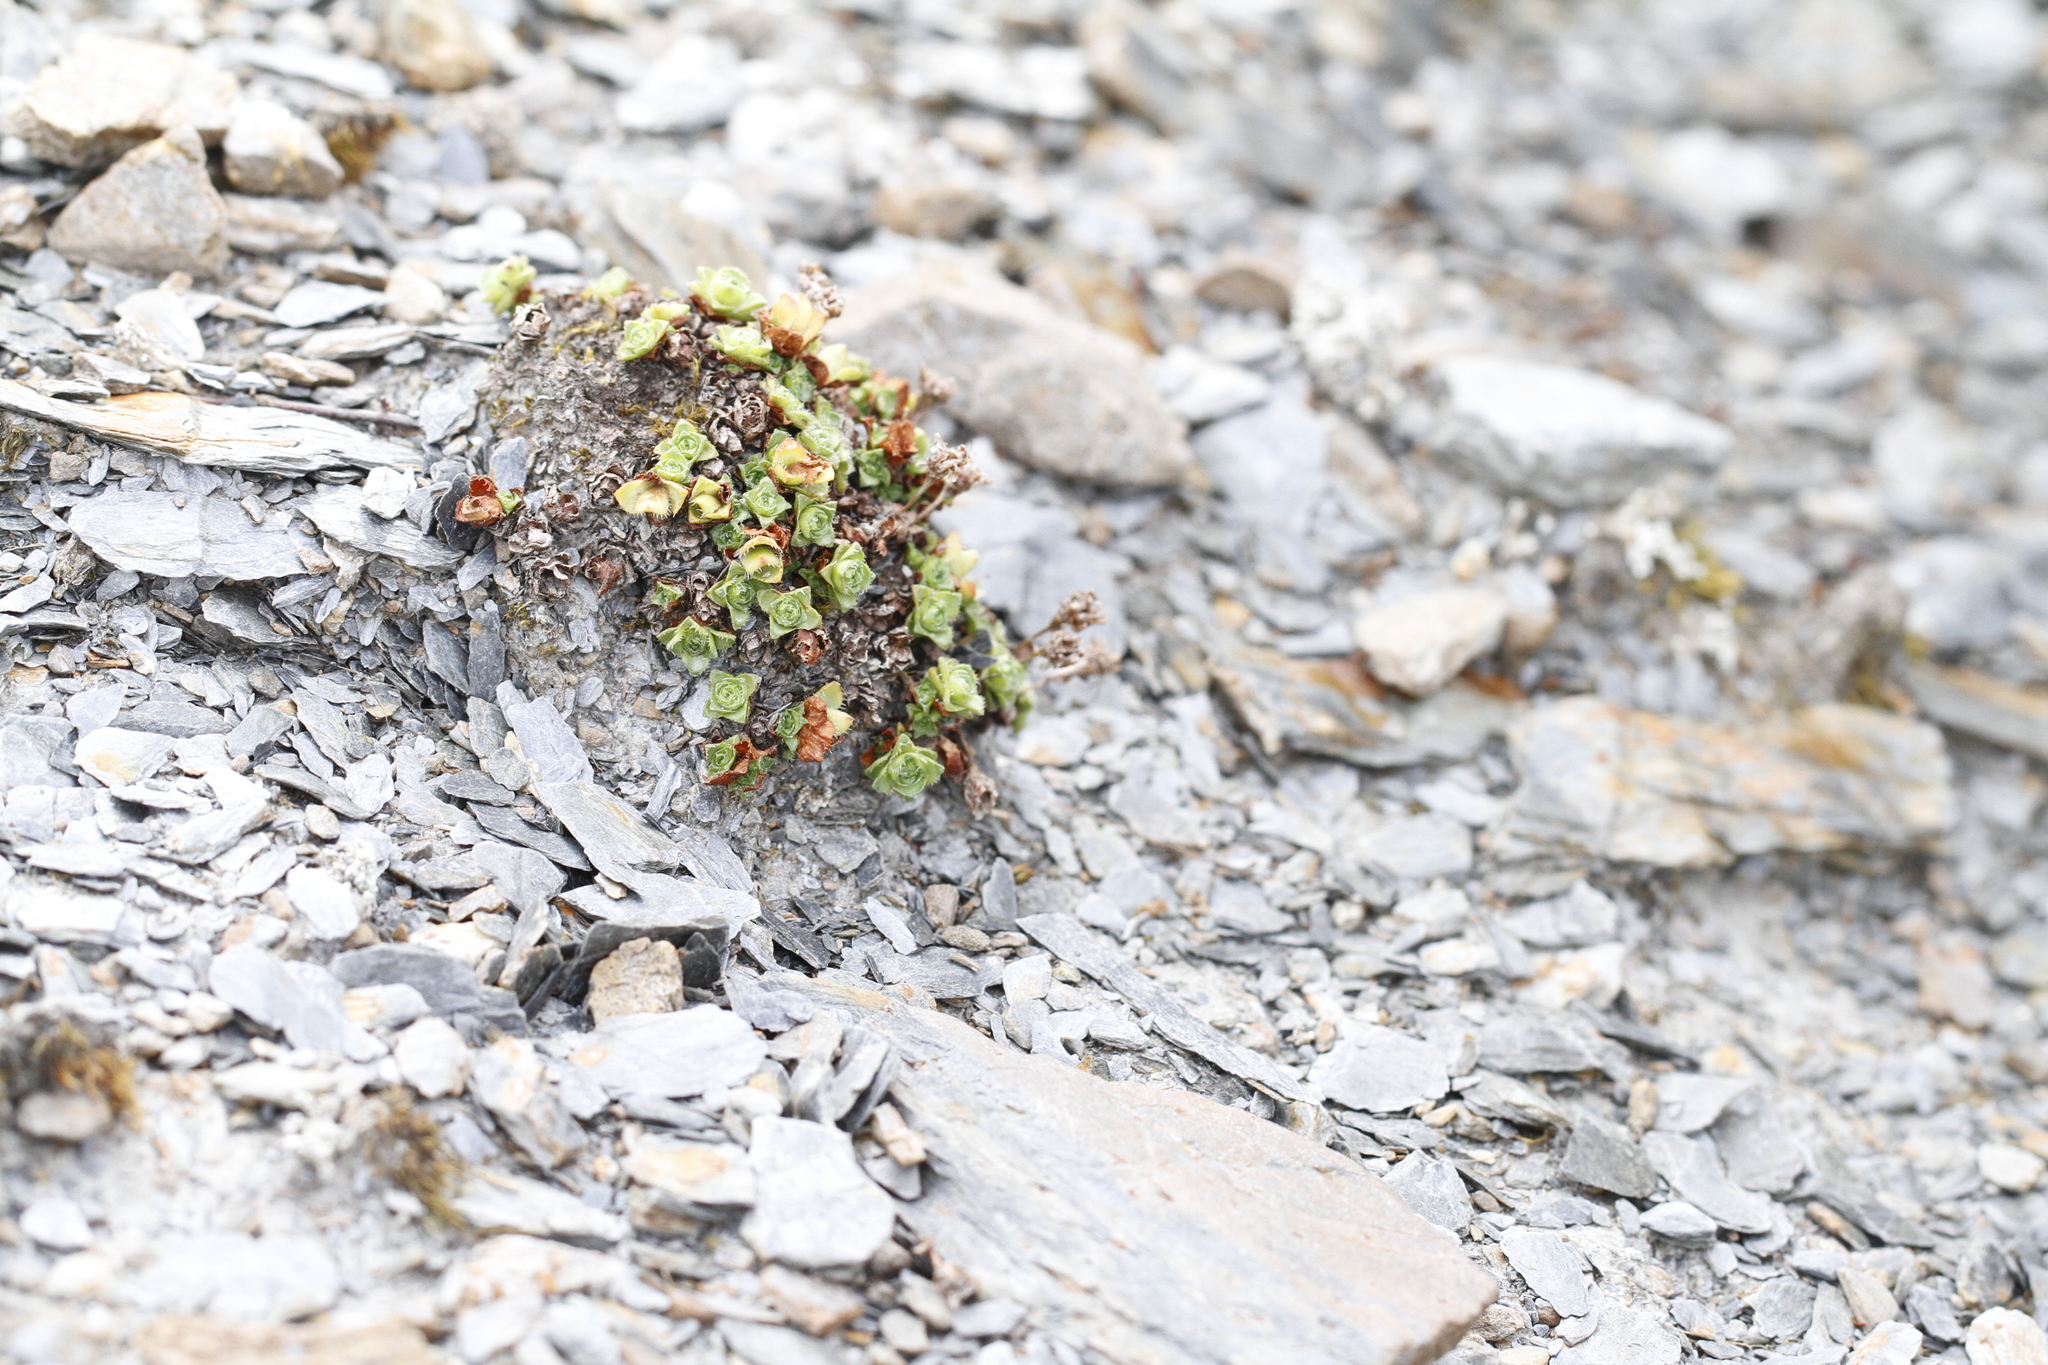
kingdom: Plantae
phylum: Tracheophyta
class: Magnoliopsida
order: Saxifragales
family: Saxifragaceae
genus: Saxifraga
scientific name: Saxifraga oppositifolia
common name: Purple saxifrage
